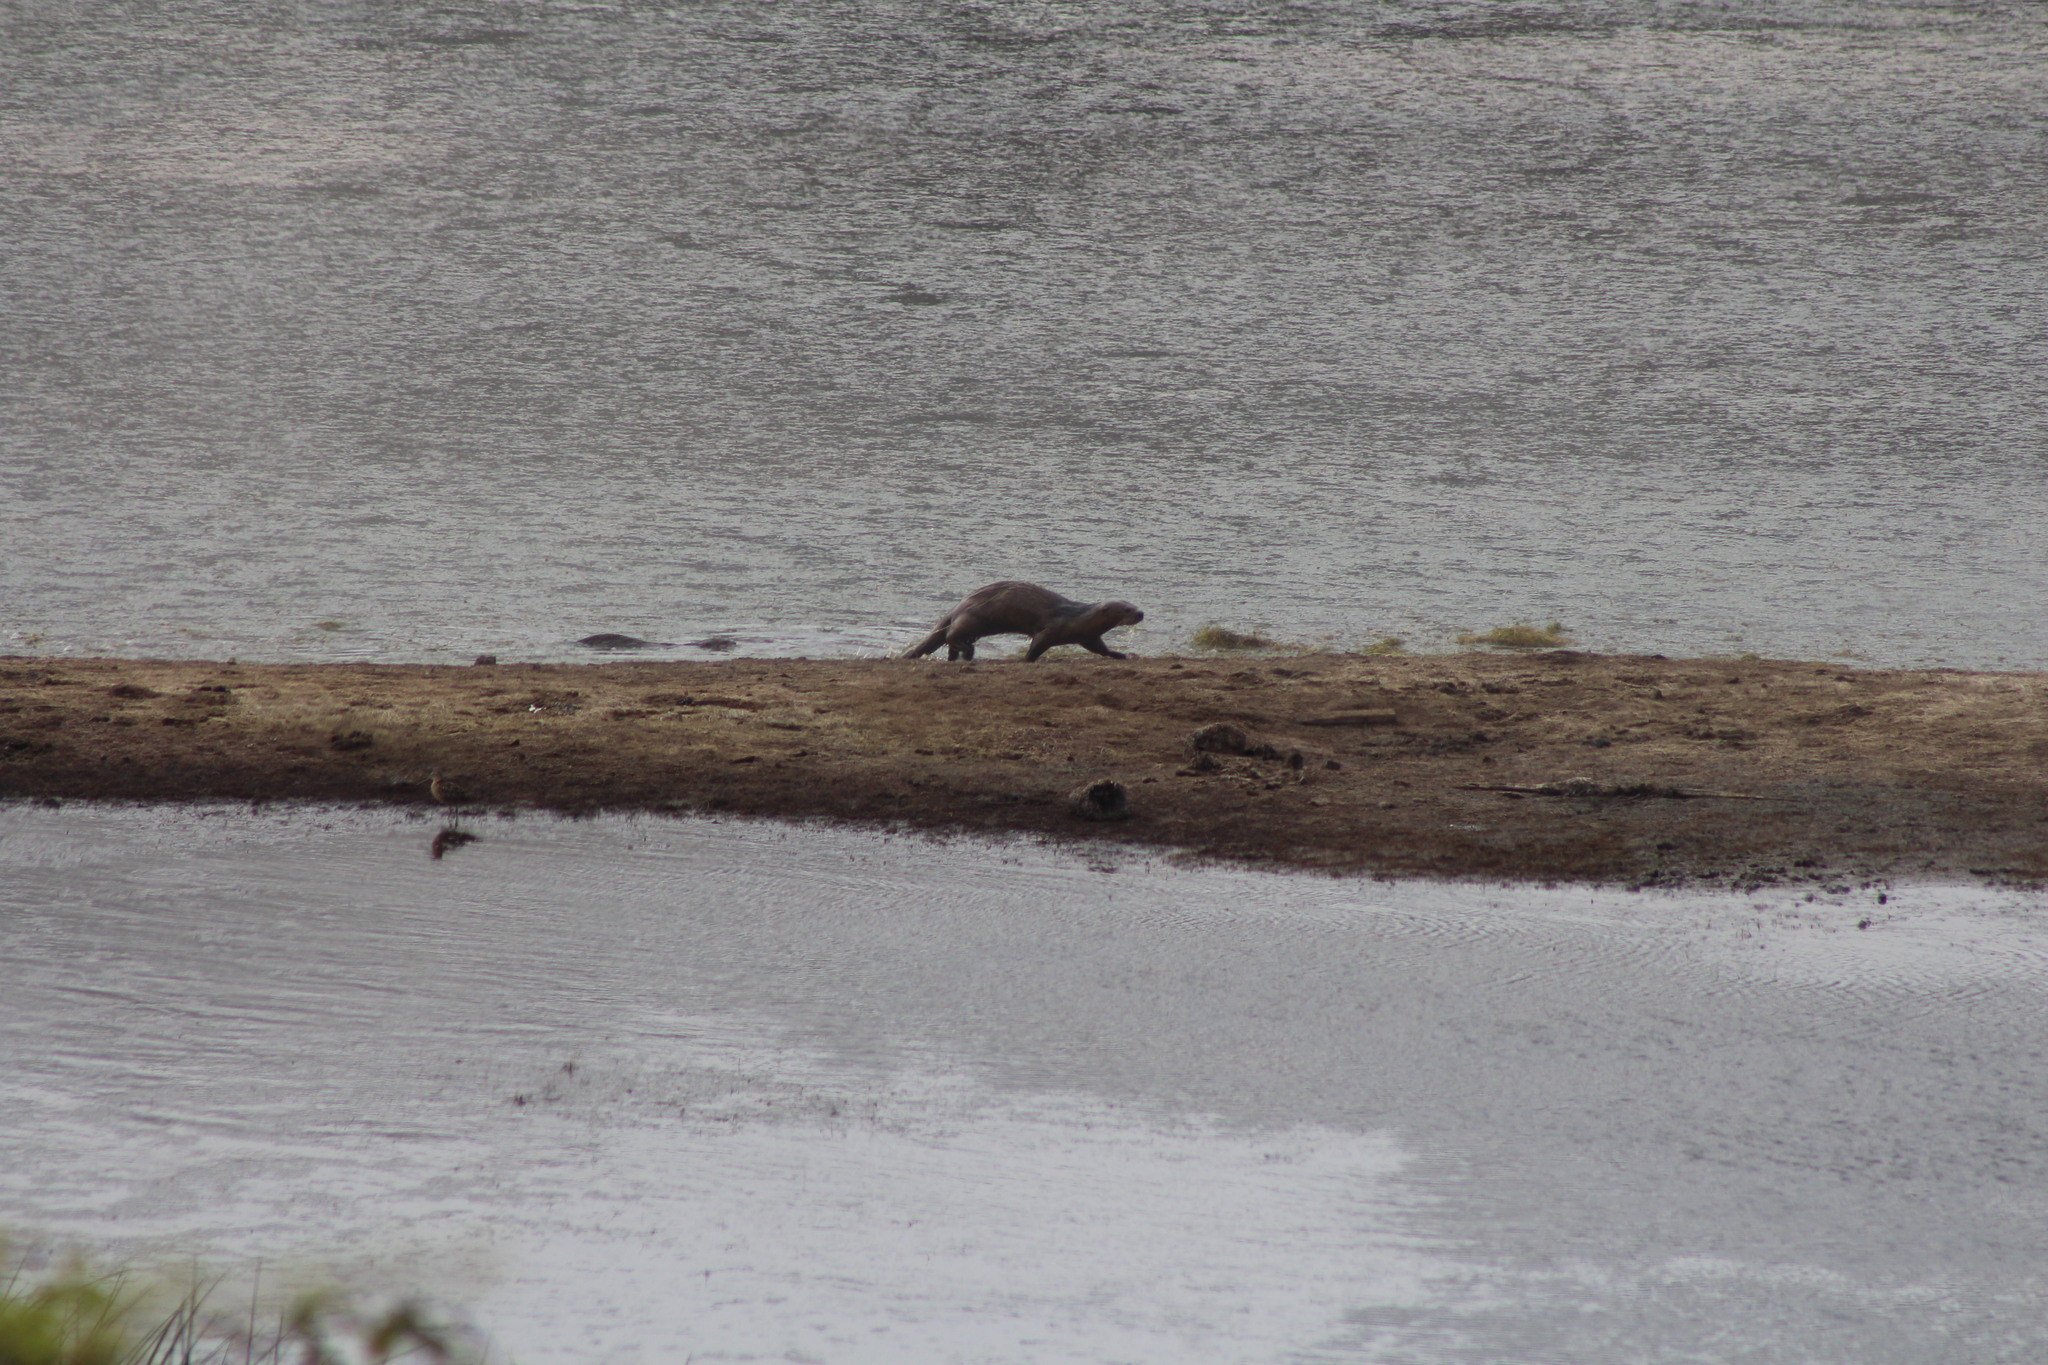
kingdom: Animalia
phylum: Chordata
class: Mammalia
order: Carnivora
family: Mustelidae
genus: Lontra
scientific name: Lontra canadensis
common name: North american river otter
